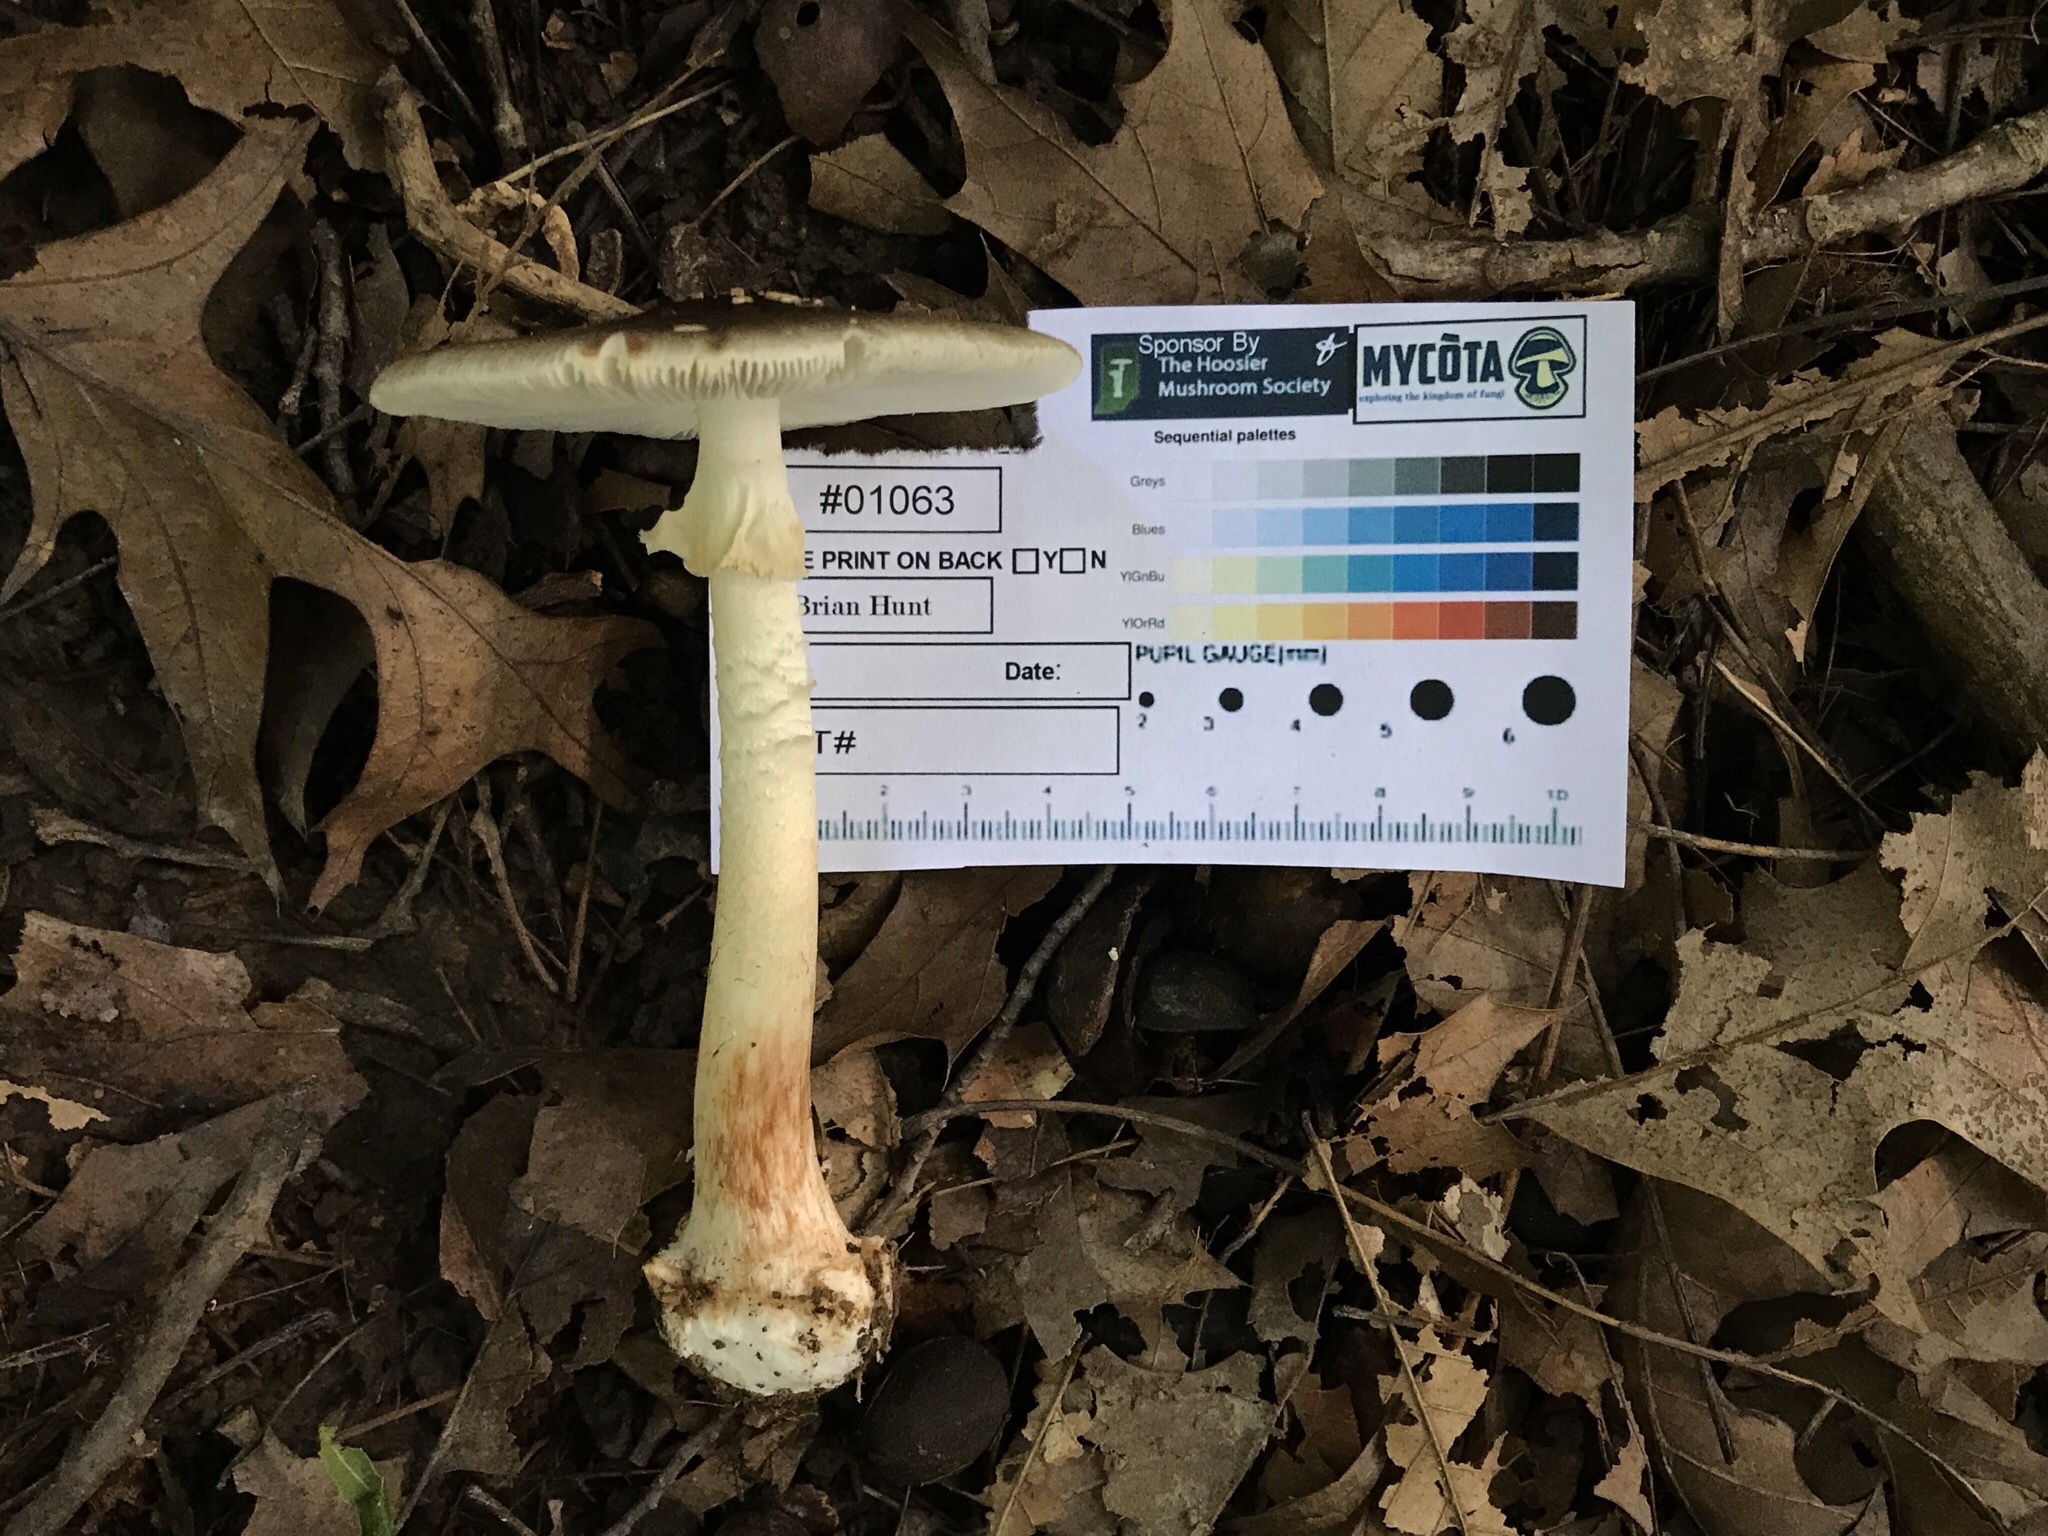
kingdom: Fungi
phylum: Basidiomycota
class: Agaricomycetes
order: Agaricales
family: Amanitaceae
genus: Amanita
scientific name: Amanita brunnescens
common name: Brown american star-footed amanita
